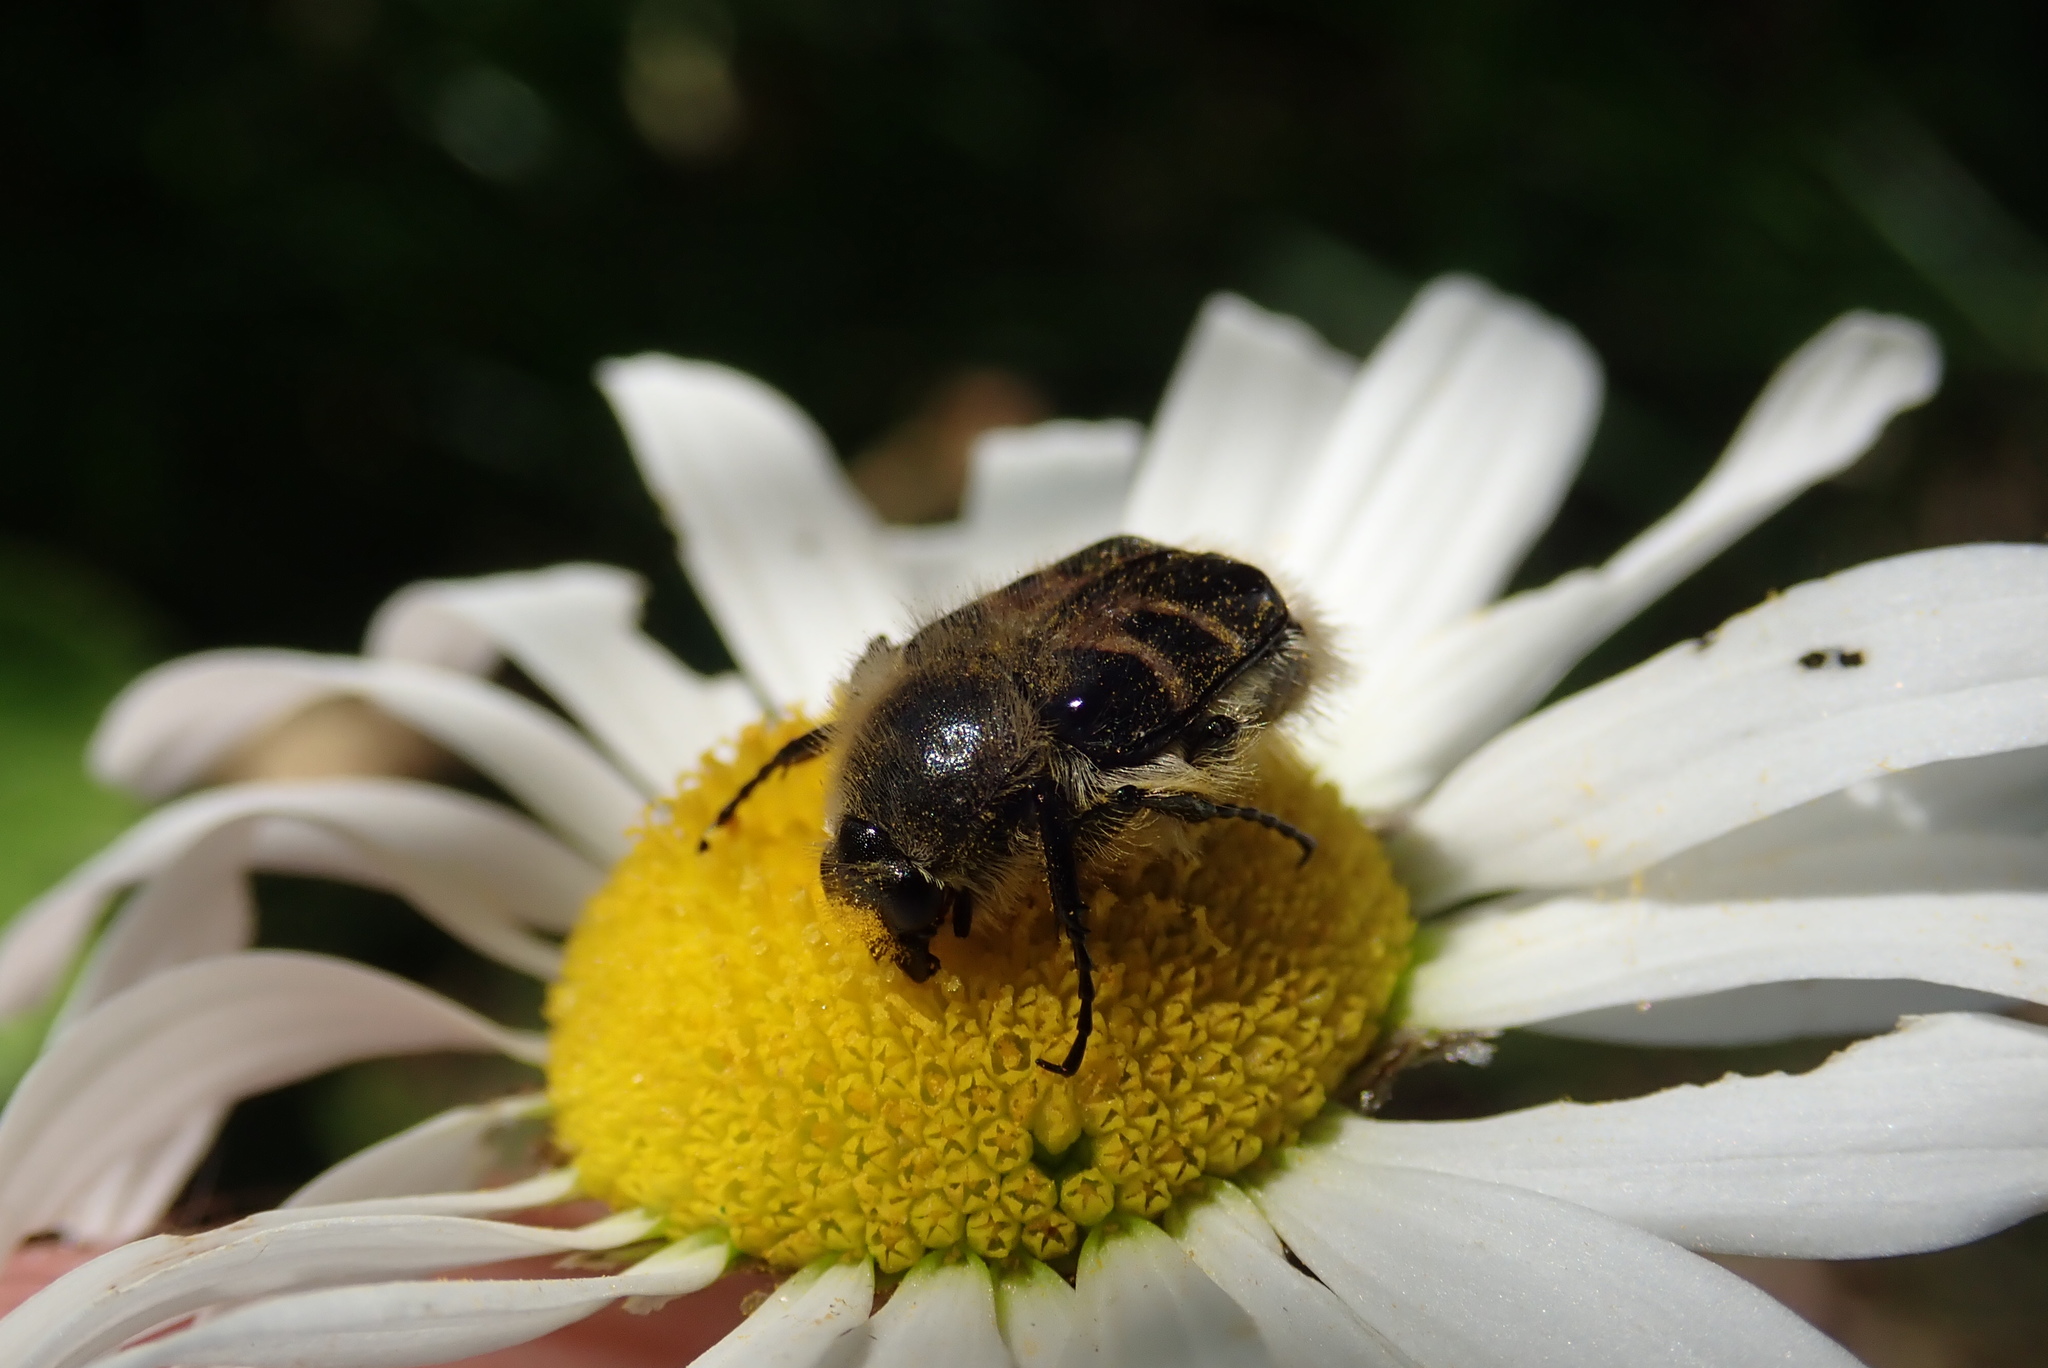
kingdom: Animalia
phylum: Arthropoda
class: Insecta
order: Coleoptera
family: Scarabaeidae
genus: Trichiotinus
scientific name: Trichiotinus assimilis
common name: Bee-mimic beetle
